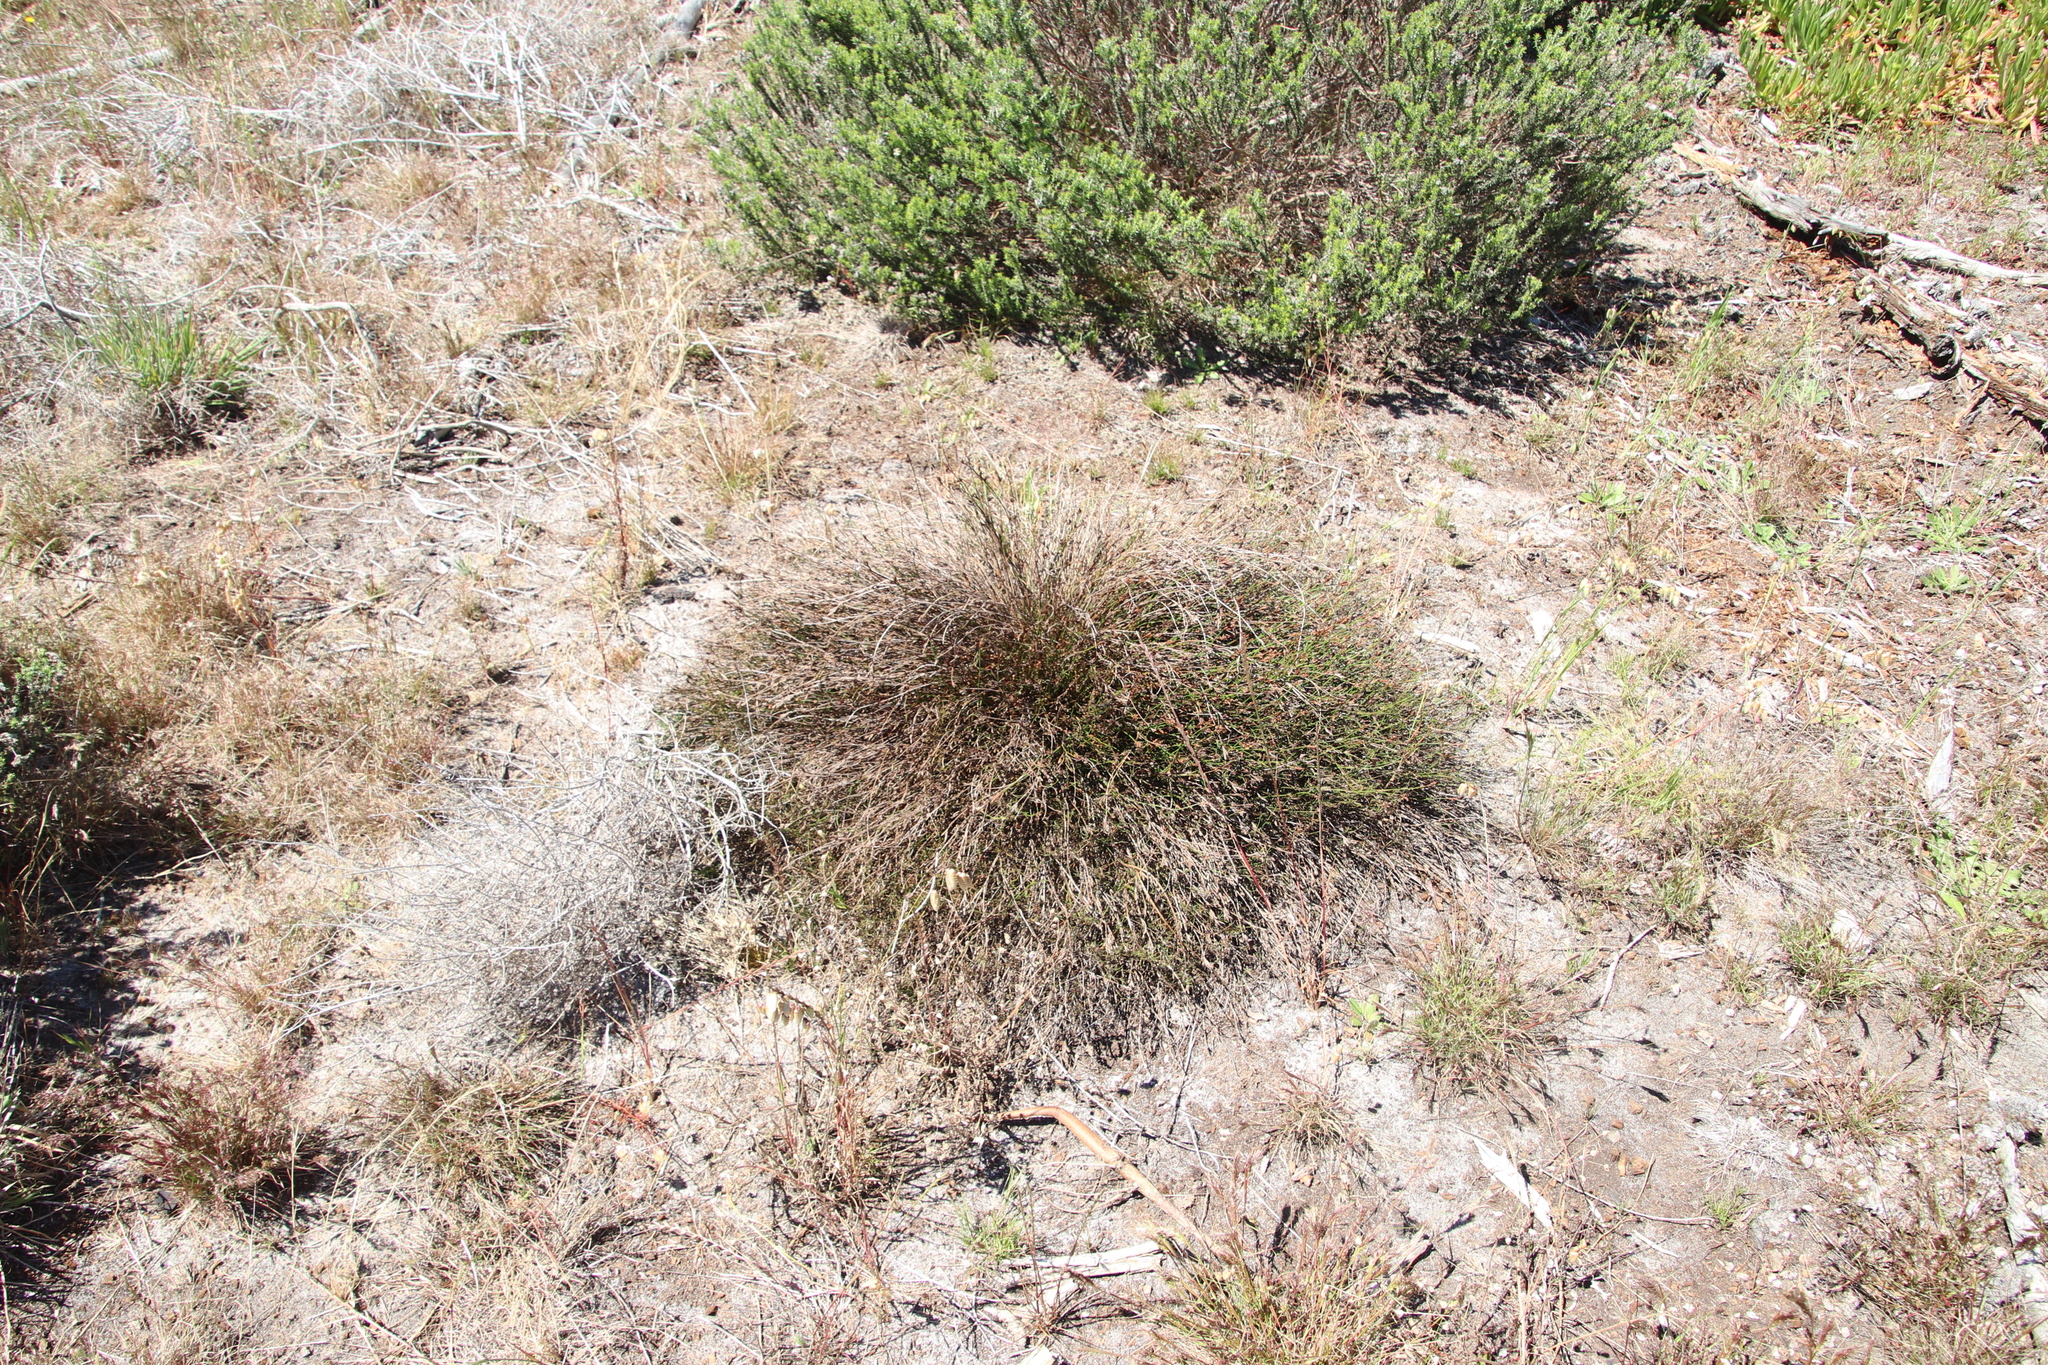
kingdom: Plantae
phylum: Tracheophyta
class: Liliopsida
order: Poales
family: Restionaceae
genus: Restio
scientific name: Restio capensis
